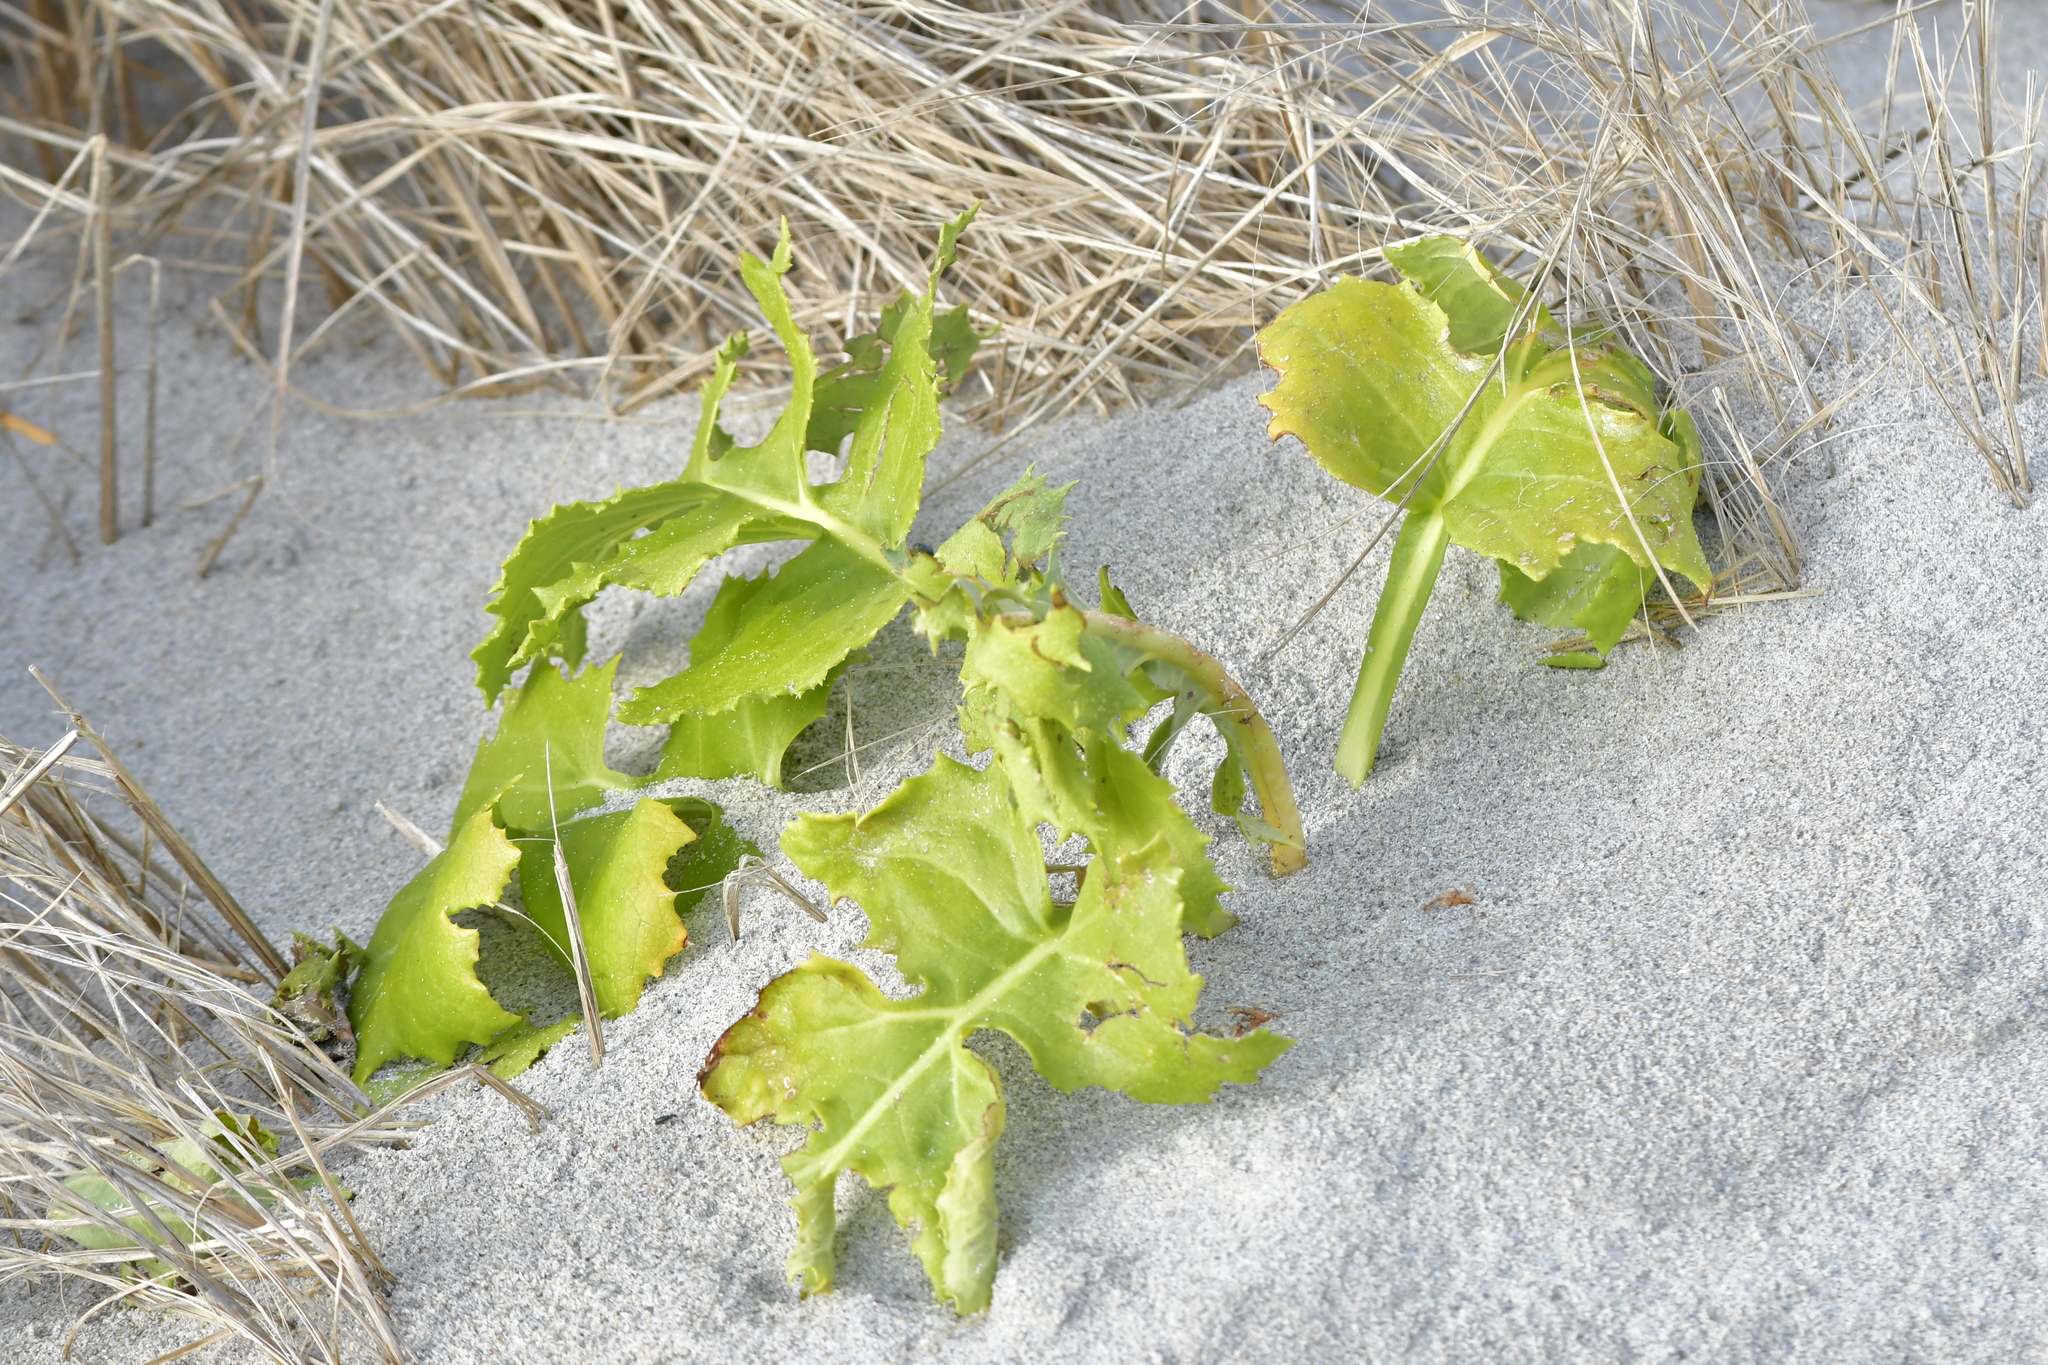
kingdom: Plantae
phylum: Tracheophyta
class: Magnoliopsida
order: Asterales
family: Asteraceae
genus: Sonchus
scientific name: Sonchus grandifolius
